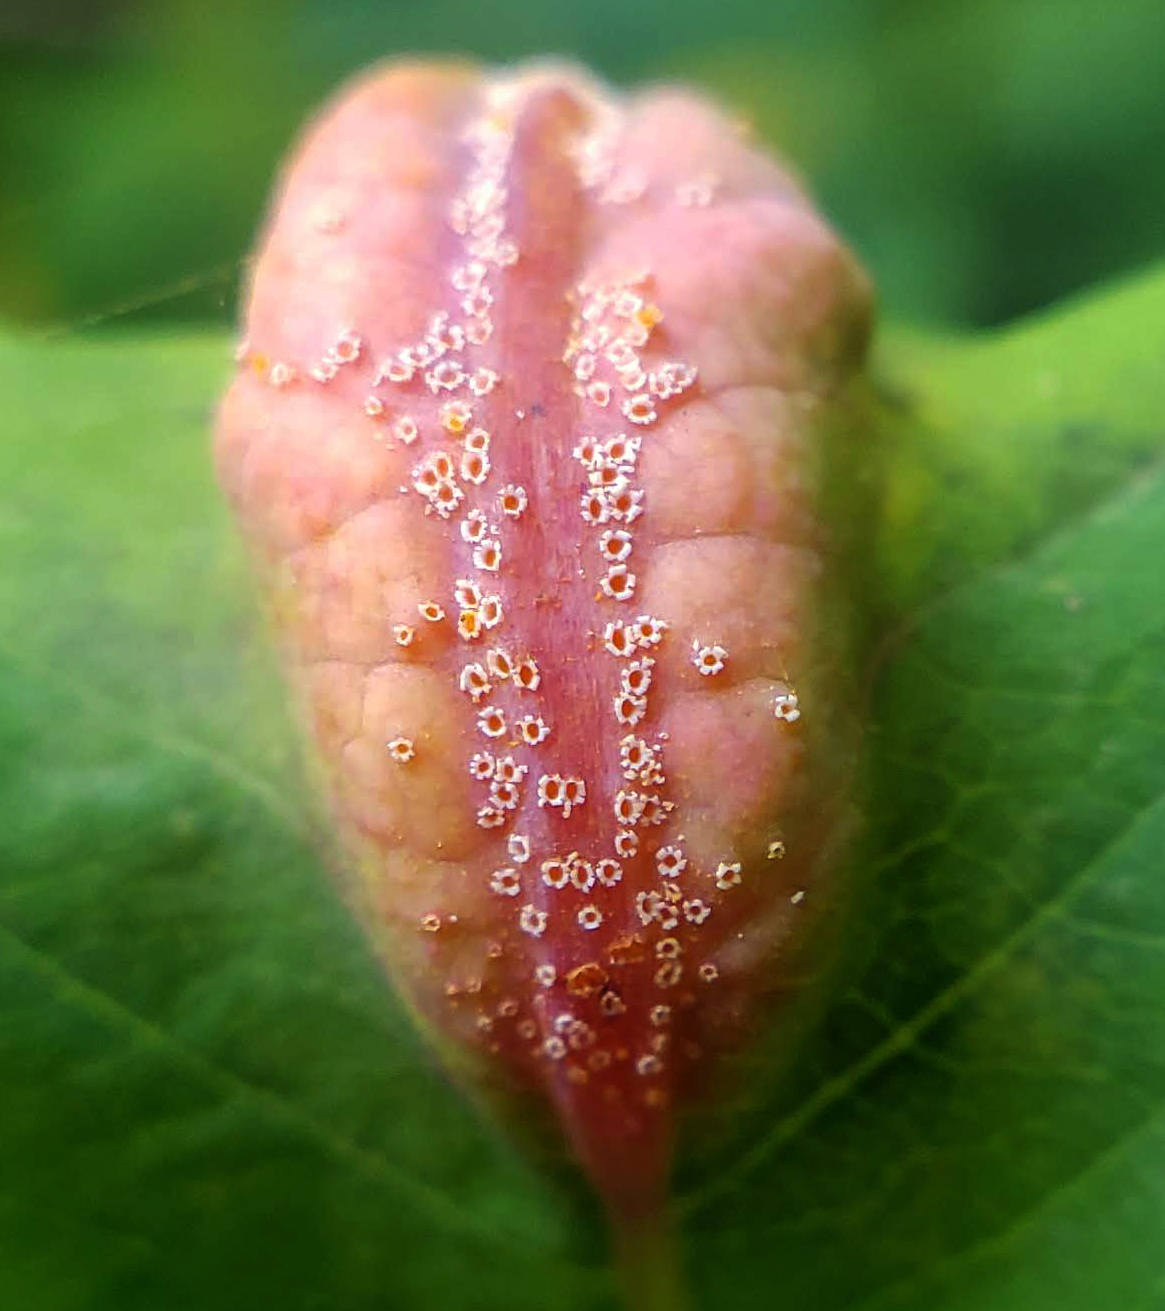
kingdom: Fungi
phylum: Basidiomycota
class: Pucciniomycetes
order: Pucciniales
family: Pucciniaceae
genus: Puccinia
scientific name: Puccinia komarovii
